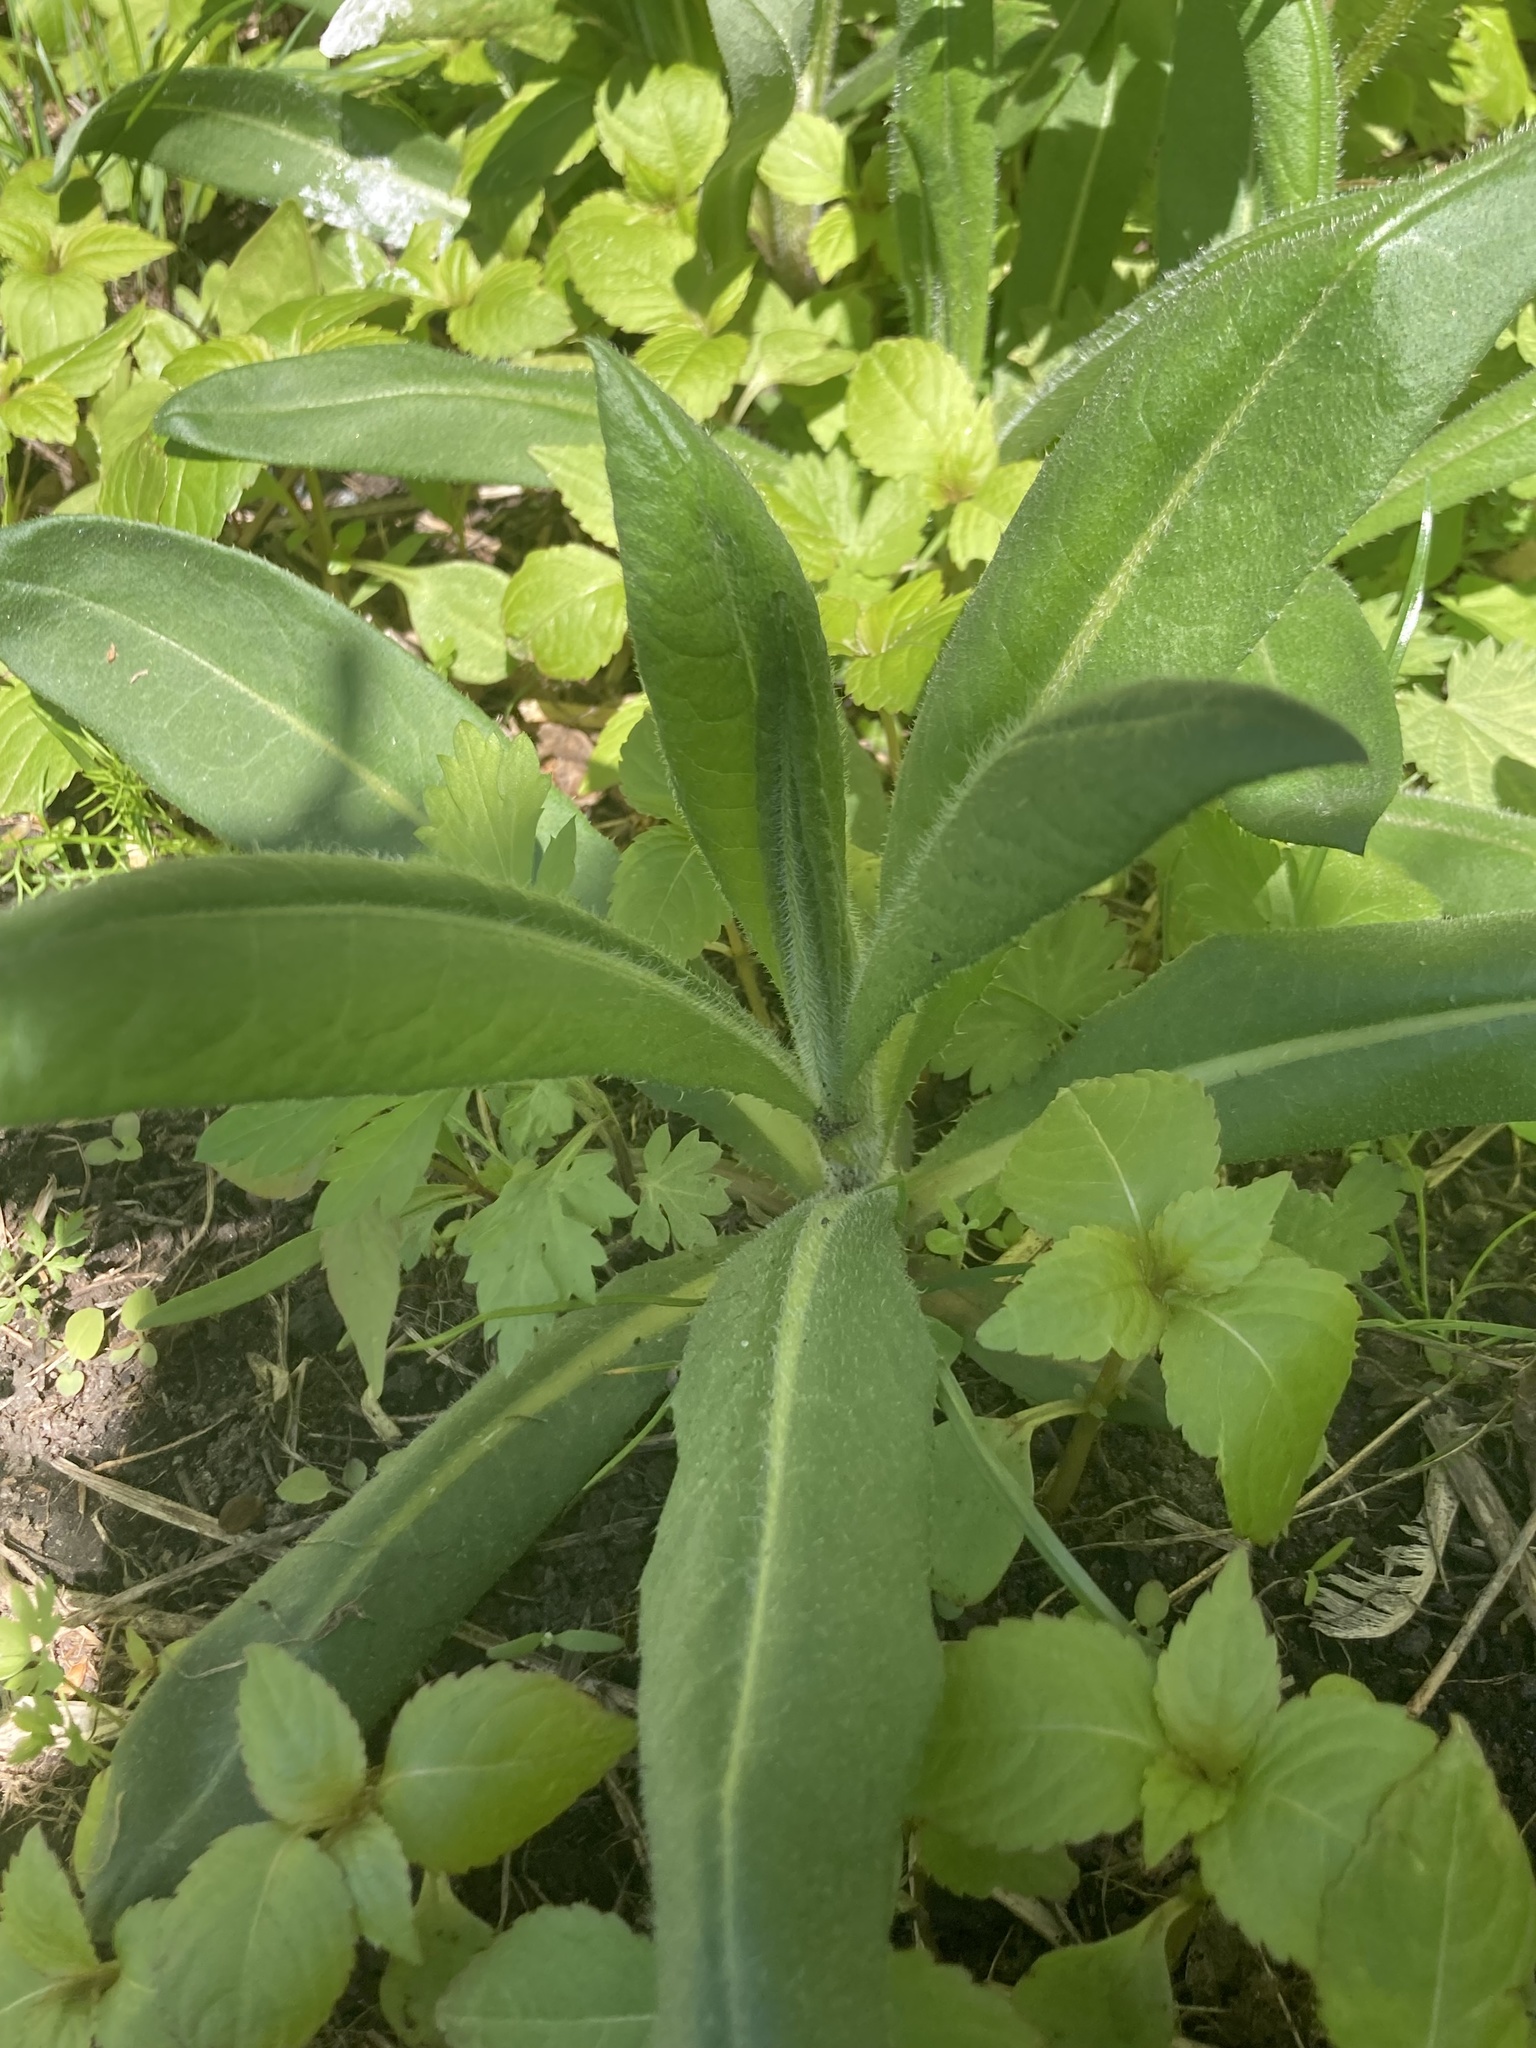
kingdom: Plantae
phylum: Tracheophyta
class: Magnoliopsida
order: Asterales
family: Asteraceae
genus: Cirsium
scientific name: Cirsium arvense
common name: Creeping thistle
